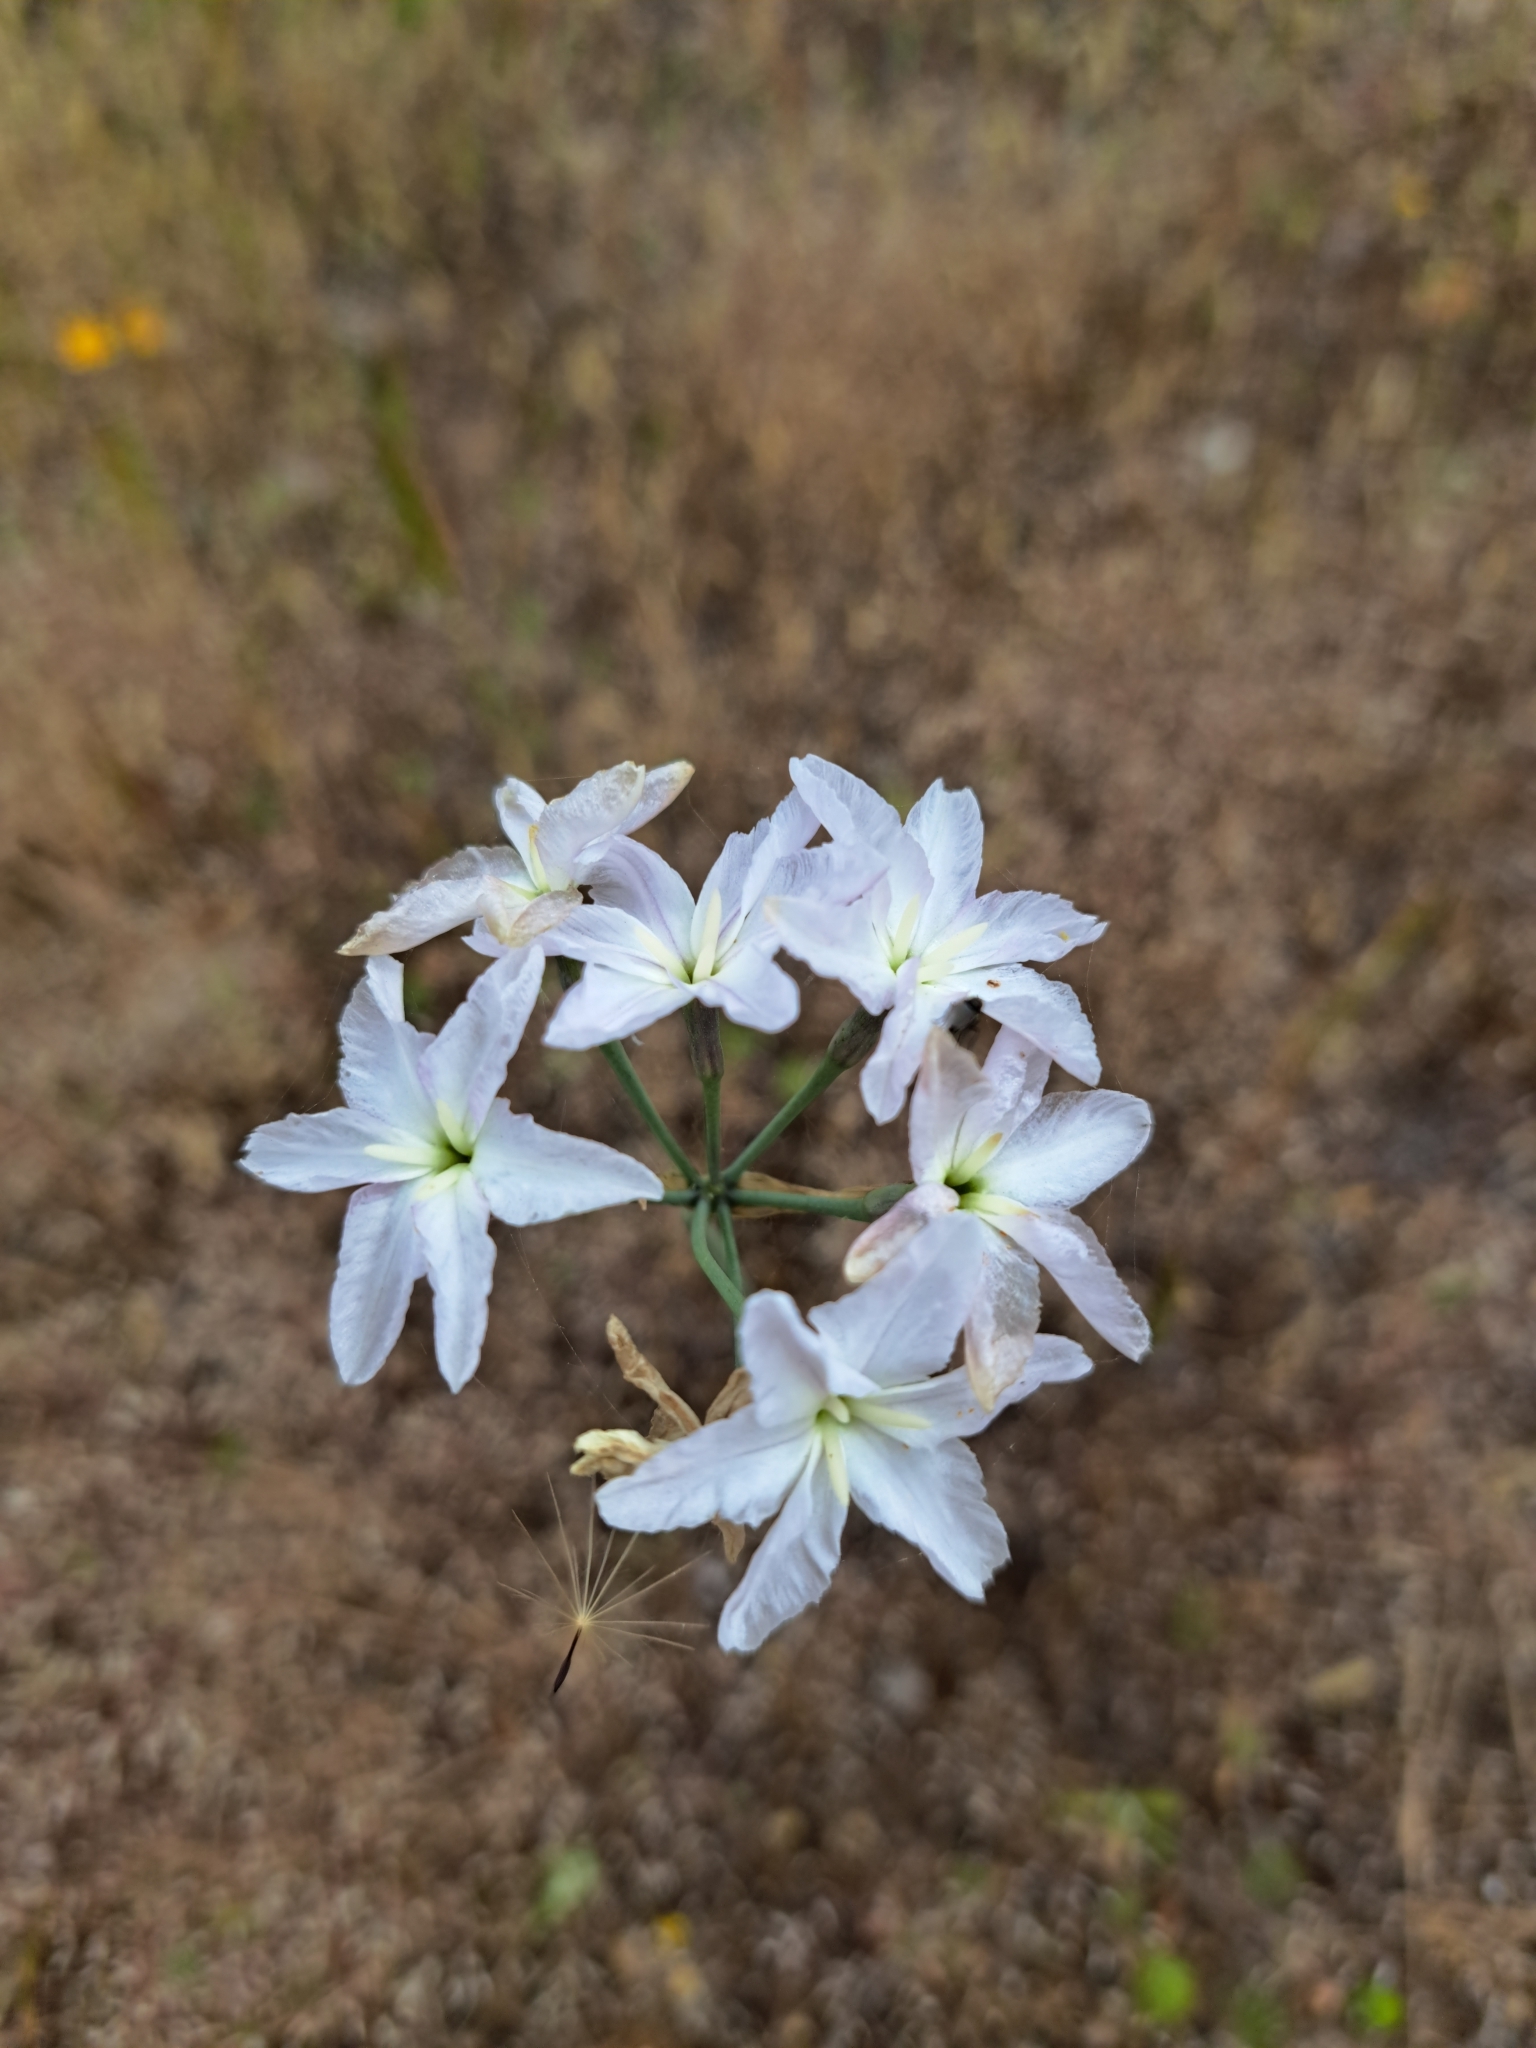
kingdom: Plantae
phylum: Tracheophyta
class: Liliopsida
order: Asparagales
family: Amaryllidaceae
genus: Leucocoryne
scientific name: Leucocoryne ixioides
